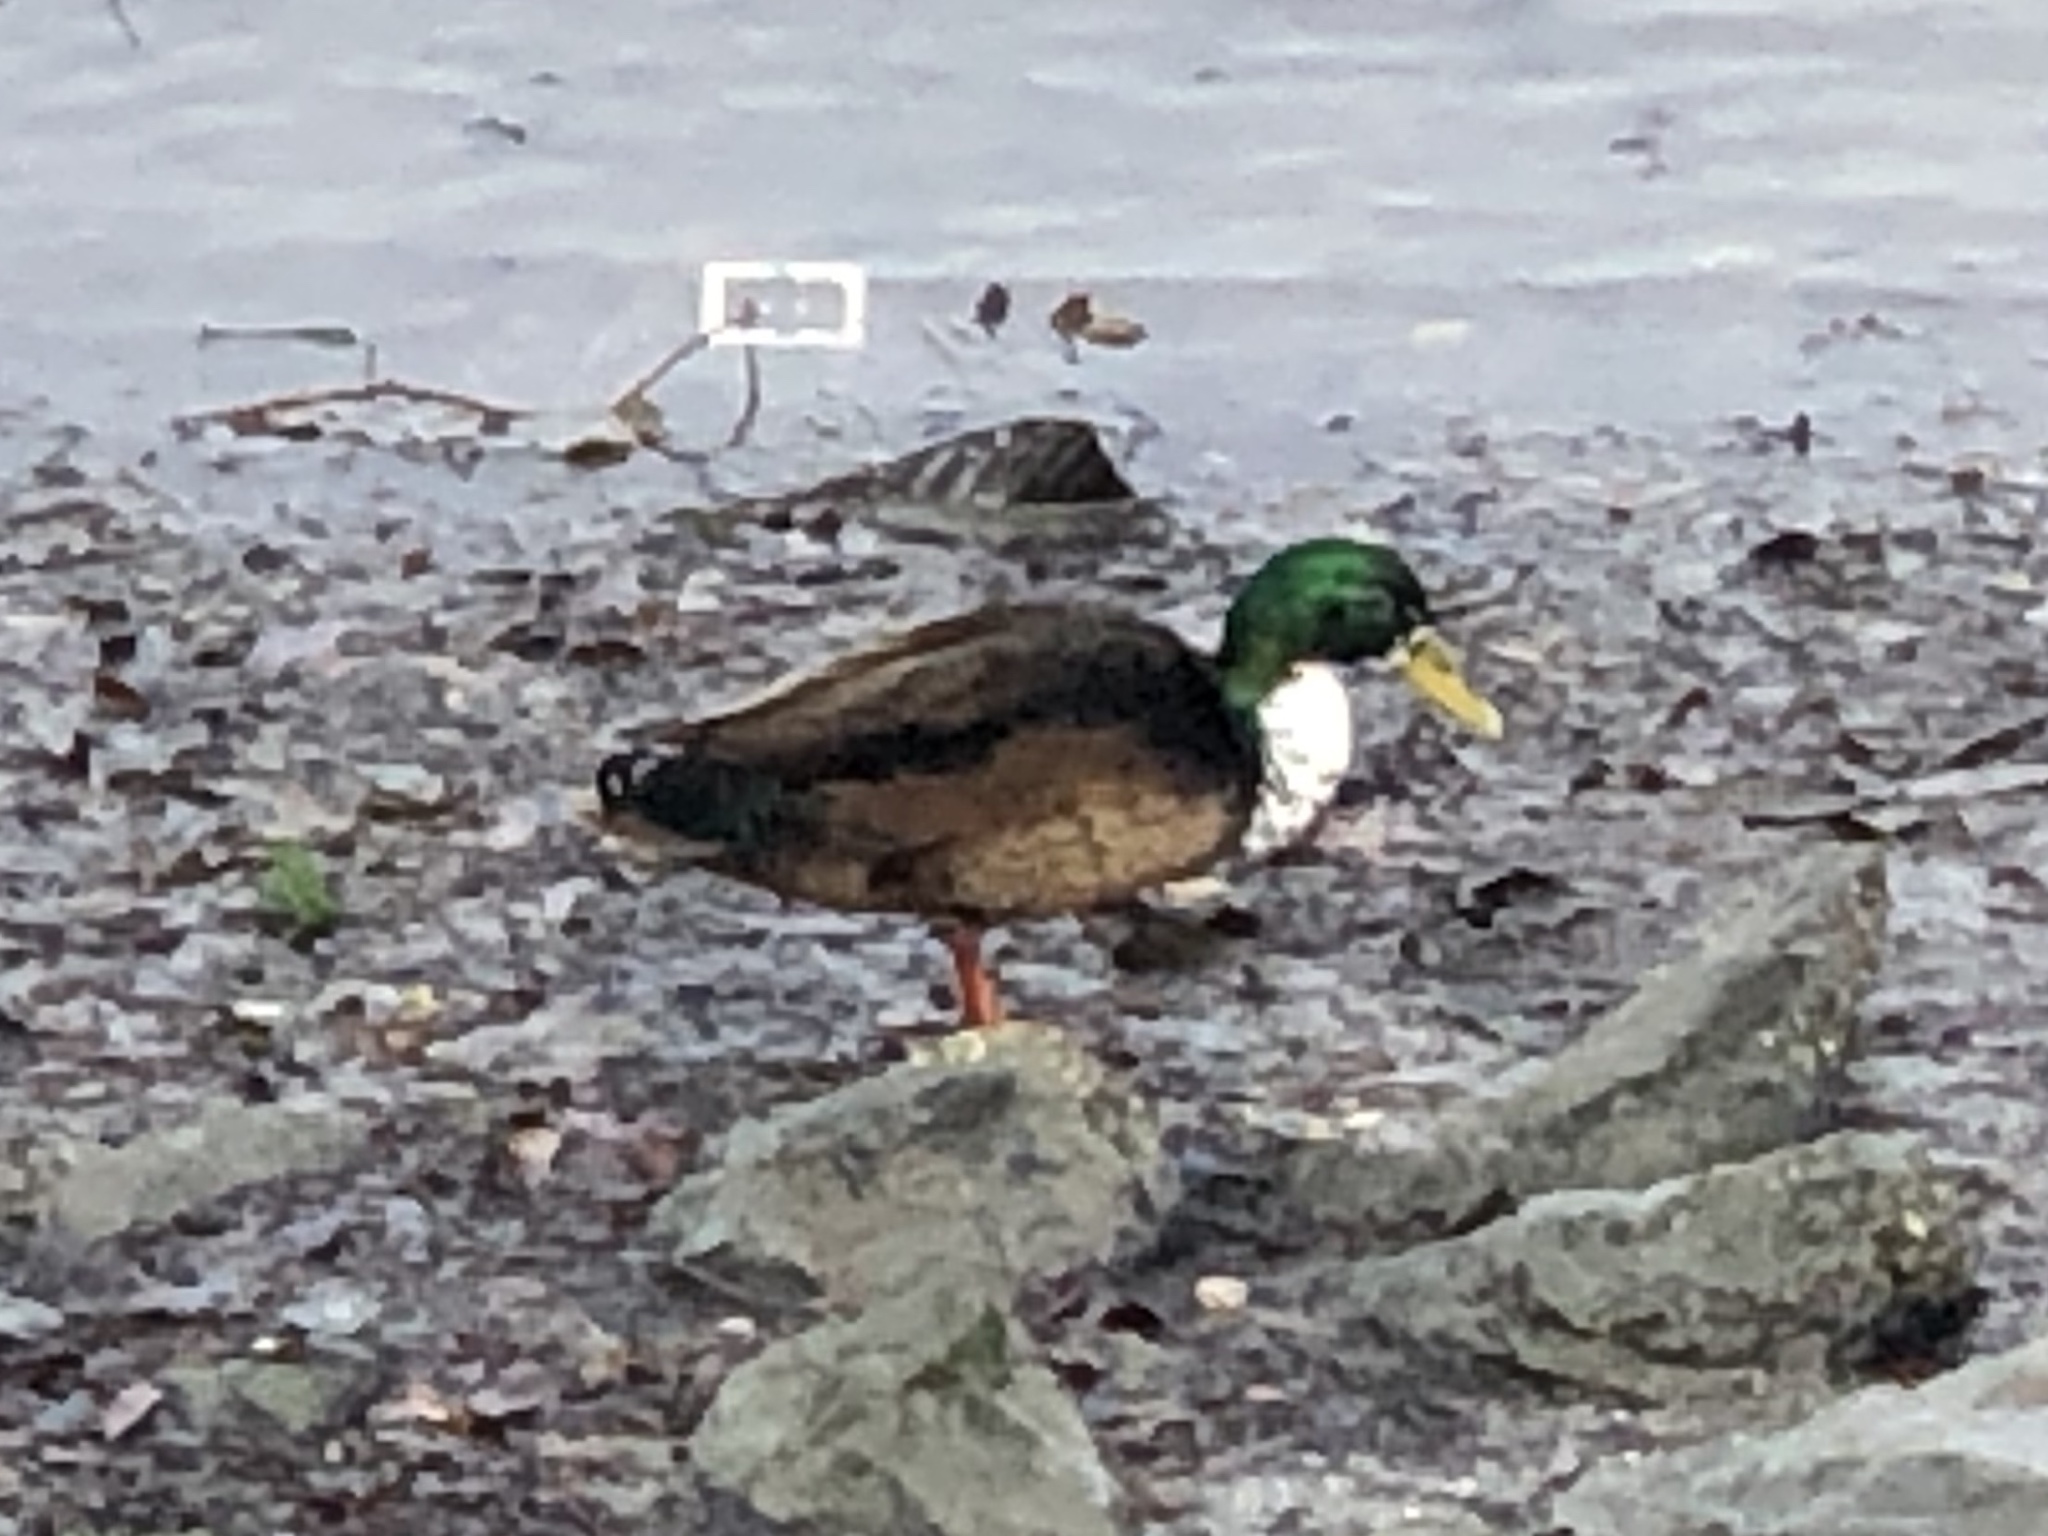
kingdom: Animalia
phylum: Chordata
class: Aves
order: Anseriformes
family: Anatidae
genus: Anas
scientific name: Anas platyrhynchos
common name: Mallard
